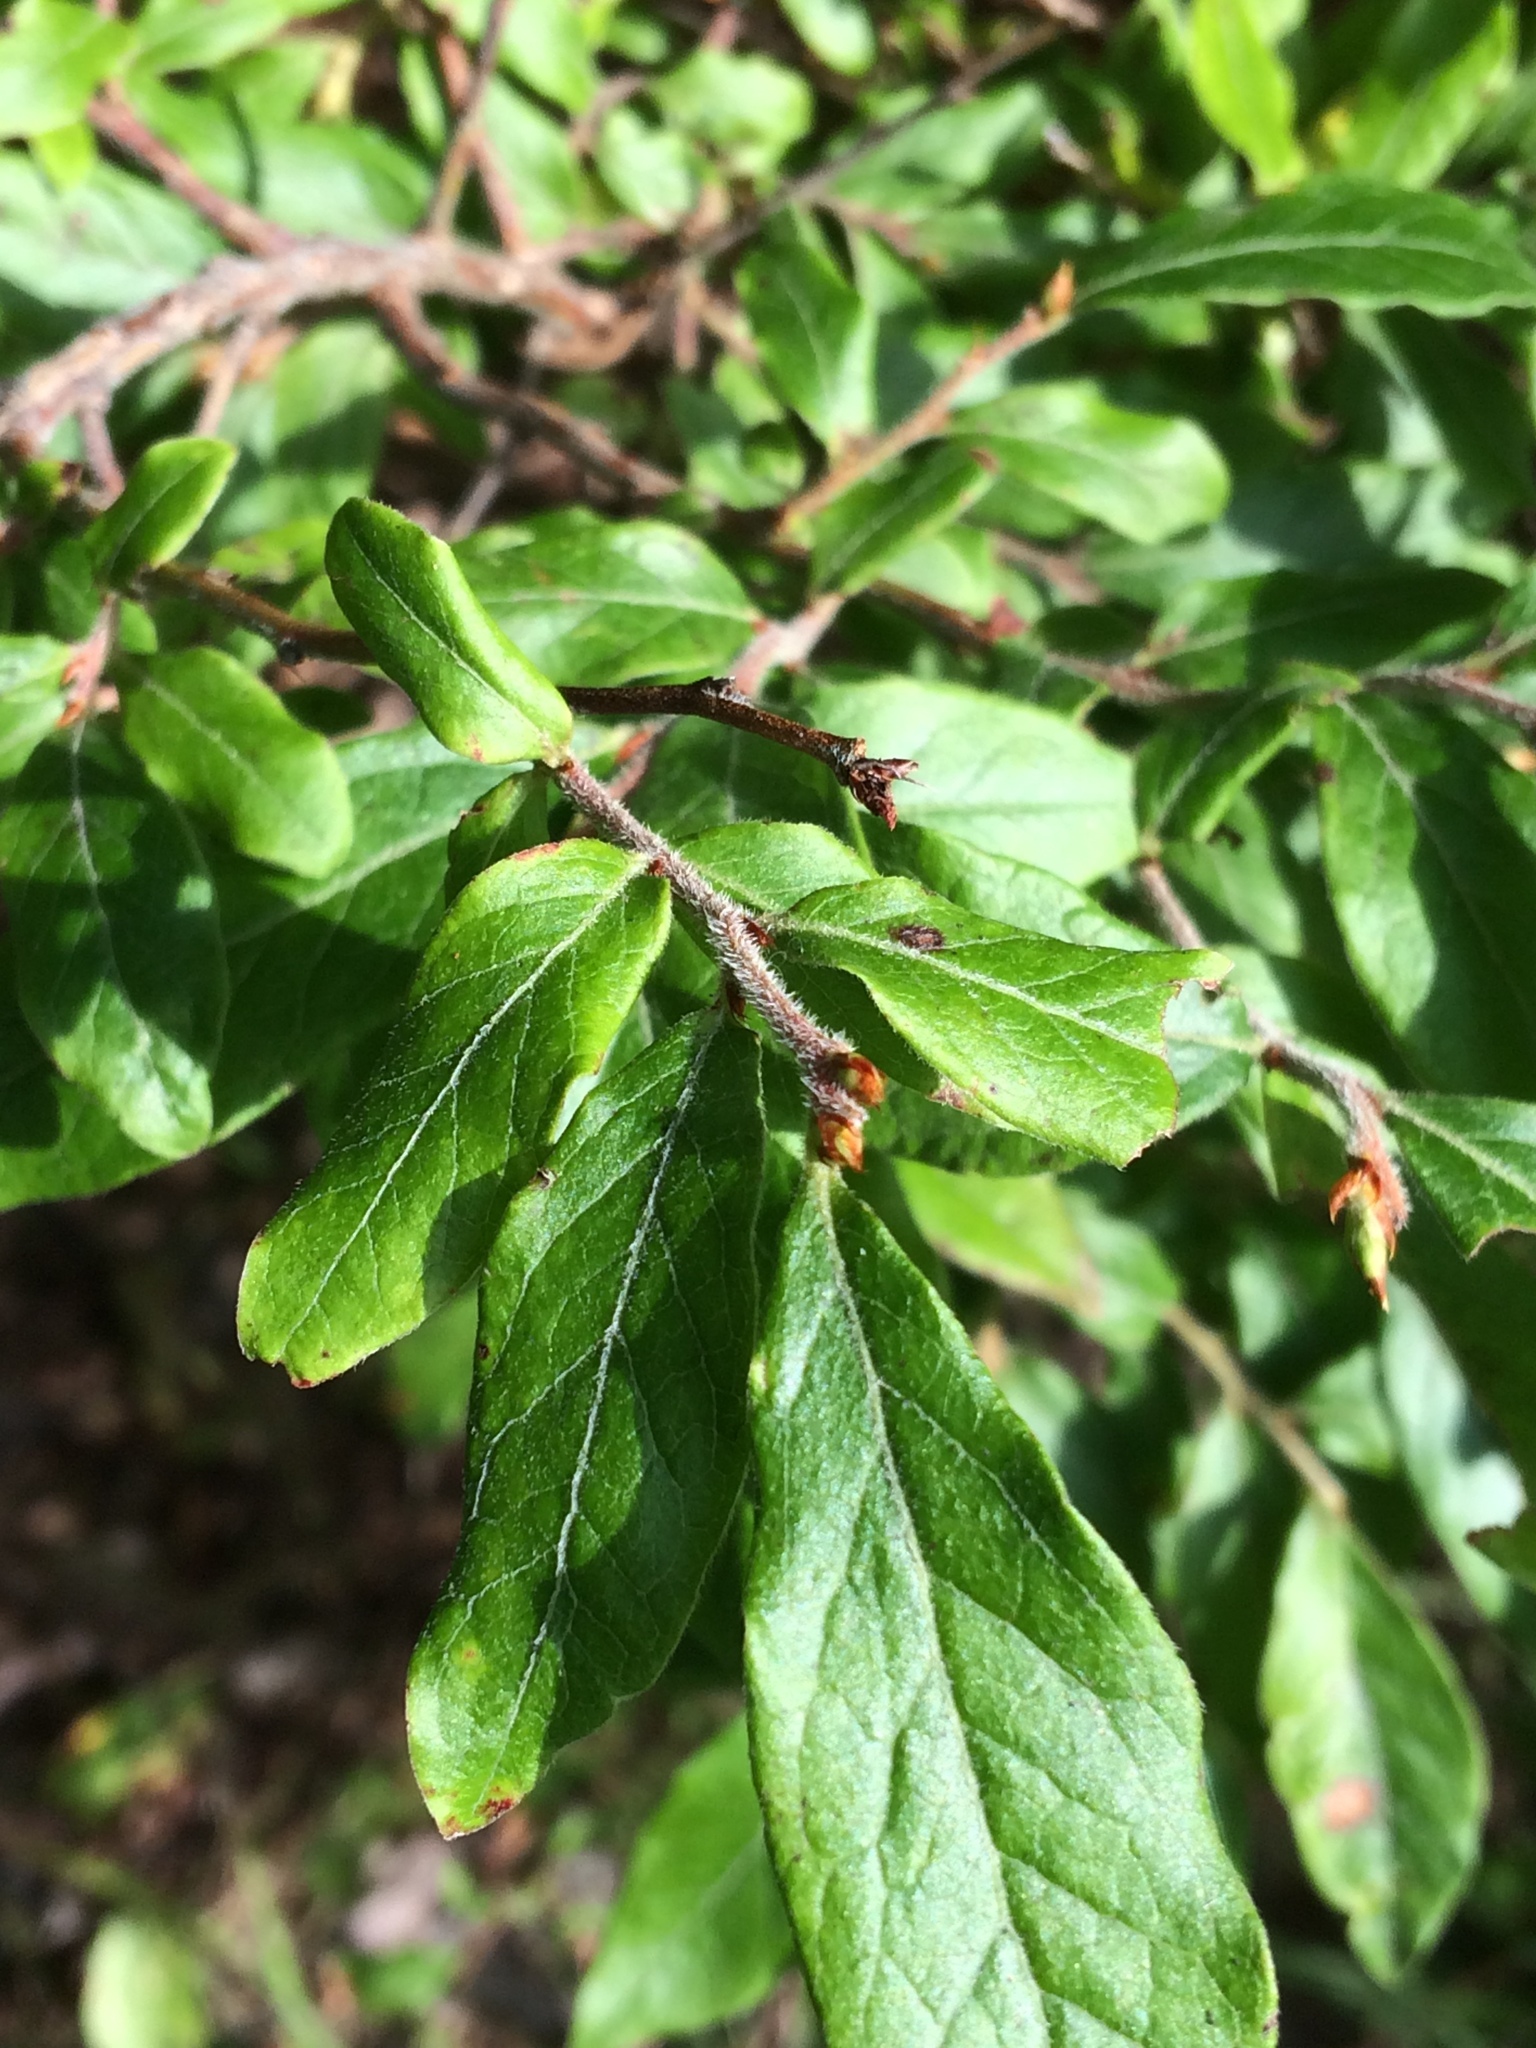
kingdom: Plantae
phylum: Tracheophyta
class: Magnoliopsida
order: Ericales
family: Ericaceae
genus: Vaccinium
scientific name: Vaccinium myrtilloides
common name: Canada blueberry
